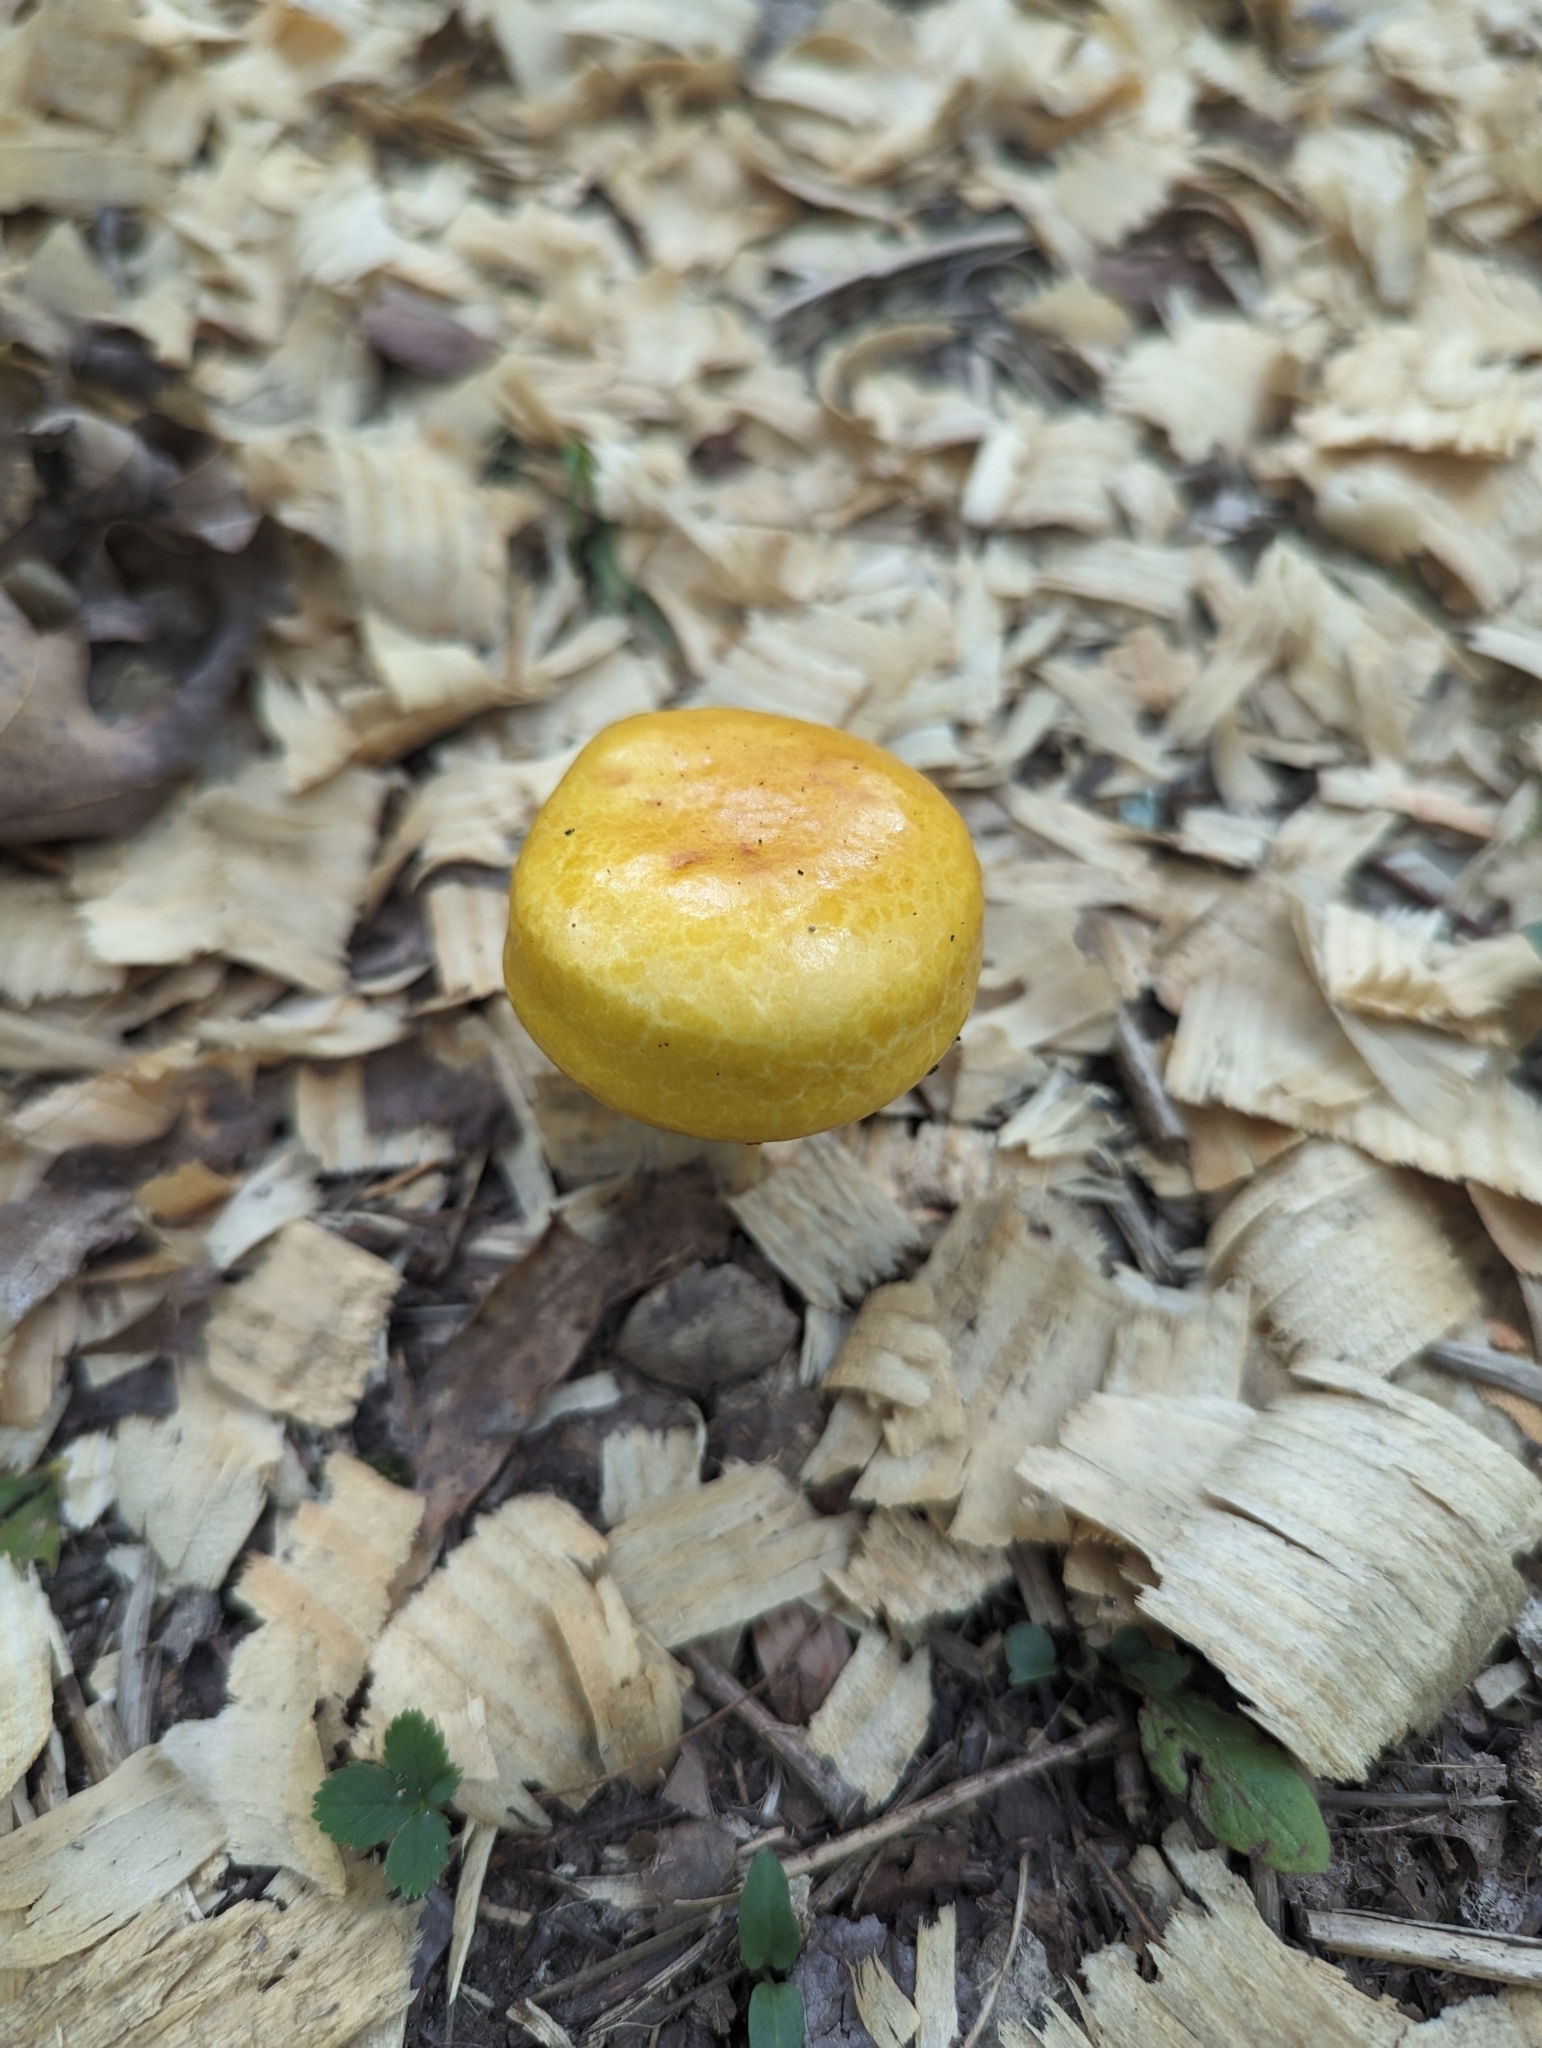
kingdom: Fungi
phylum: Basidiomycota
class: Agaricomycetes
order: Boletales
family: Boletaceae
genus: Pulveroboletus
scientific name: Pulveroboletus curtisii
